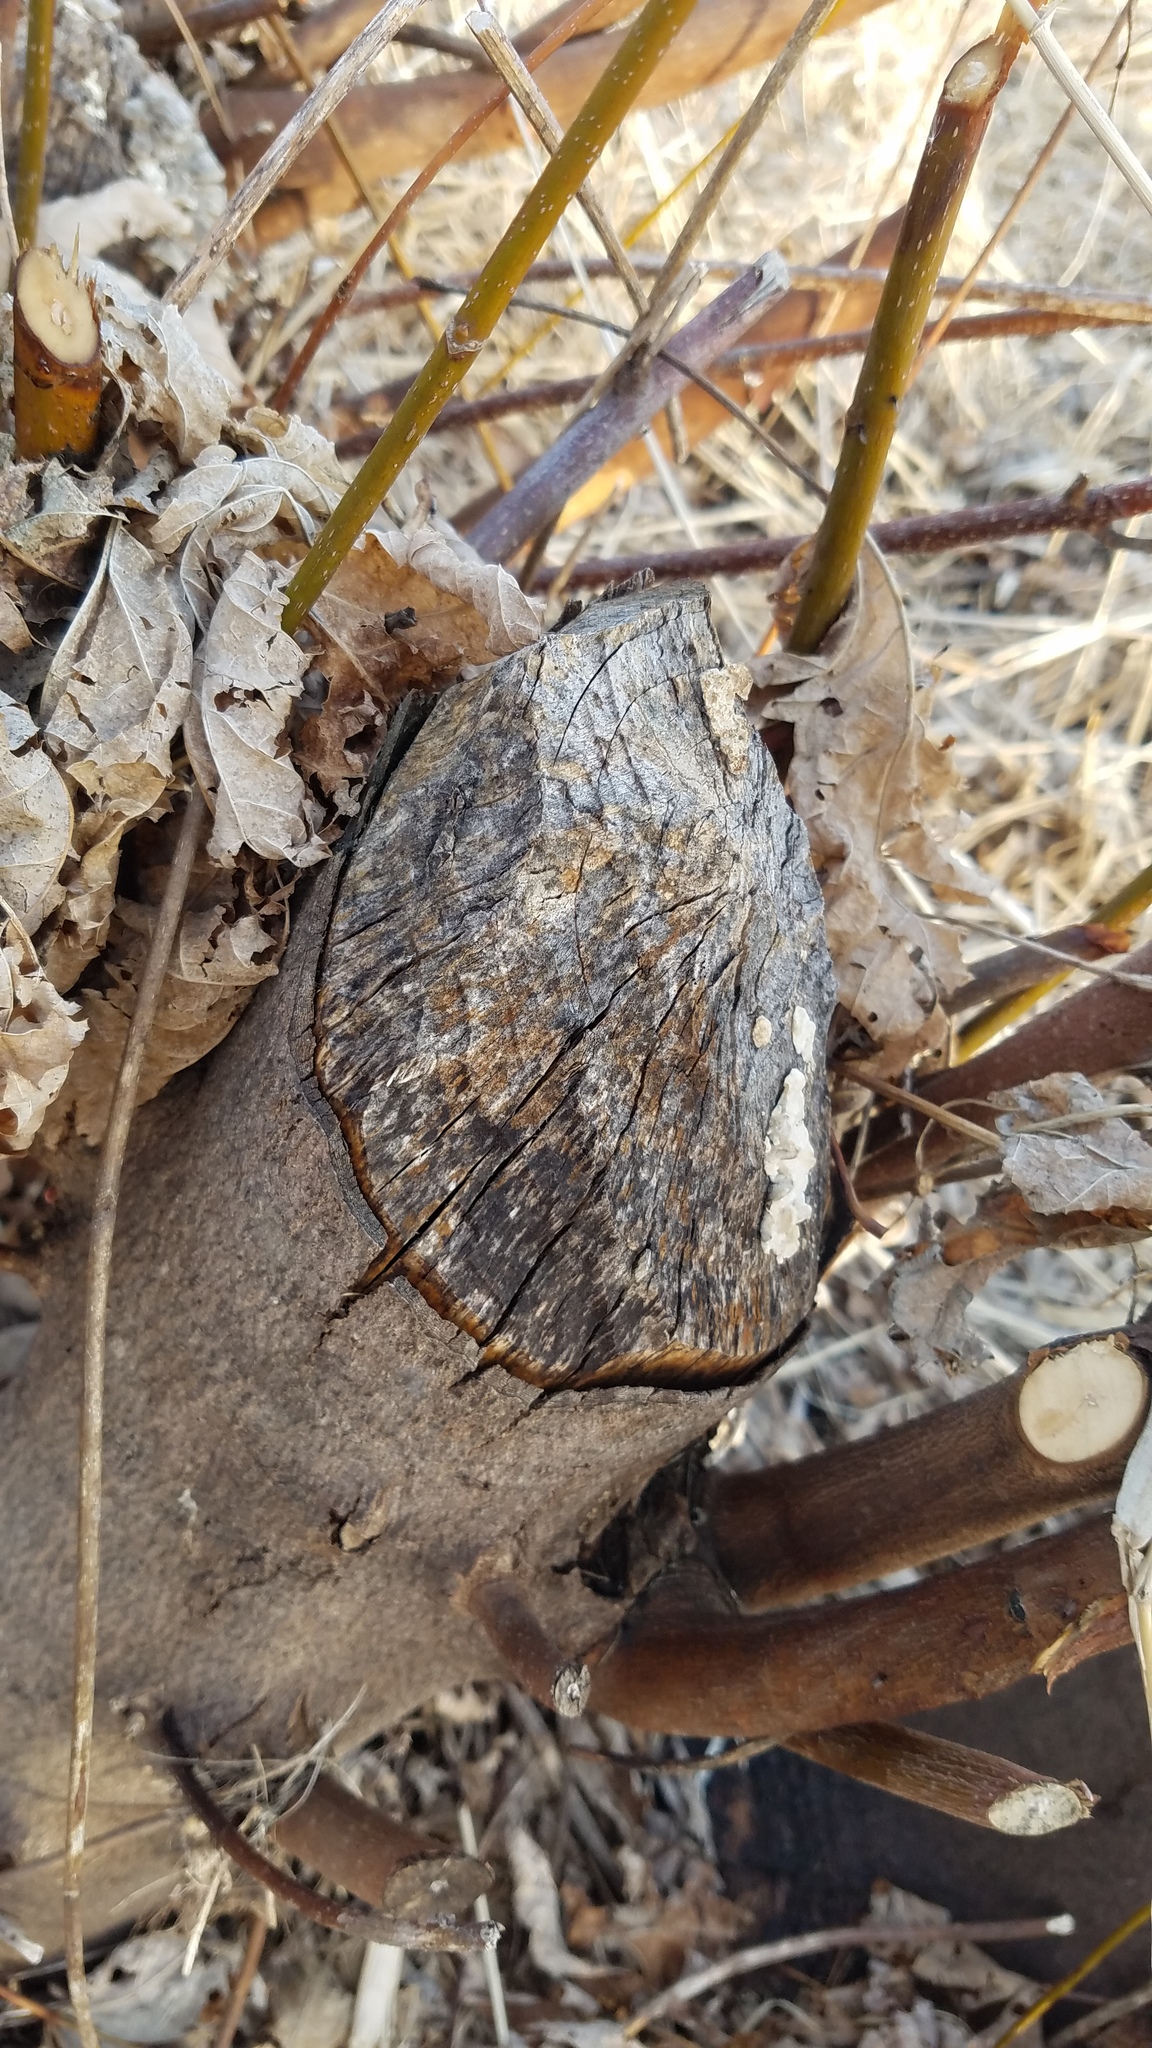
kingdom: Animalia
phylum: Chordata
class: Mammalia
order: Rodentia
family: Castoridae
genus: Castor
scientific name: Castor canadensis
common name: American beaver
